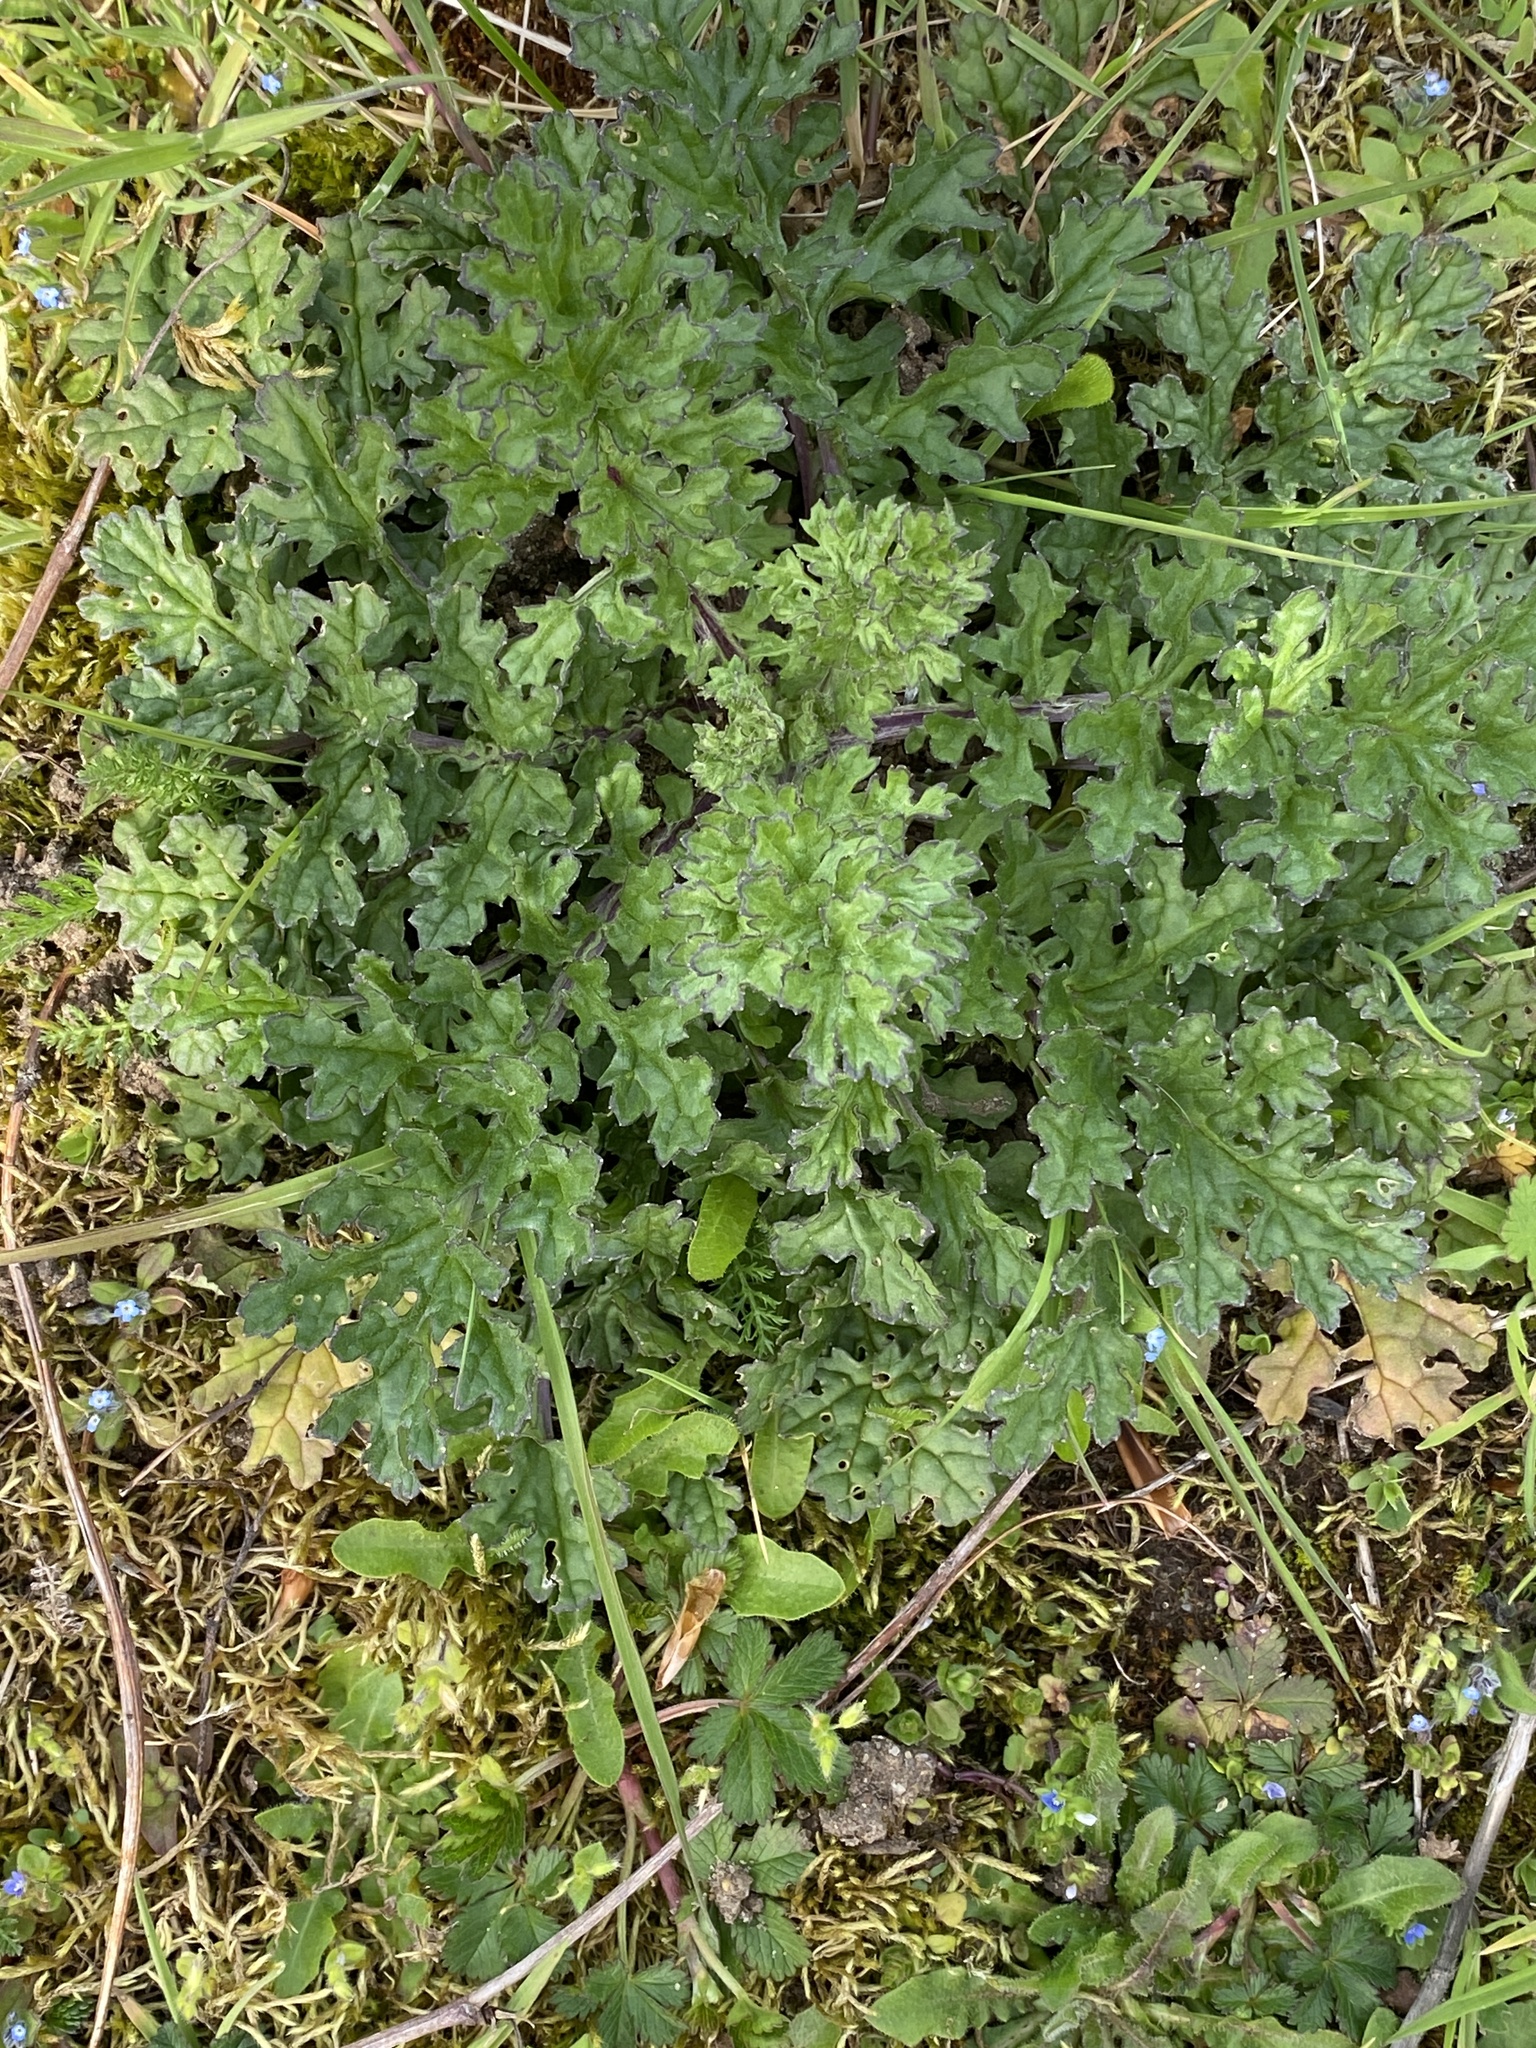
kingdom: Plantae
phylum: Tracheophyta
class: Magnoliopsida
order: Asterales
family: Asteraceae
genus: Jacobaea
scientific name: Jacobaea vulgaris
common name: Stinking willie
